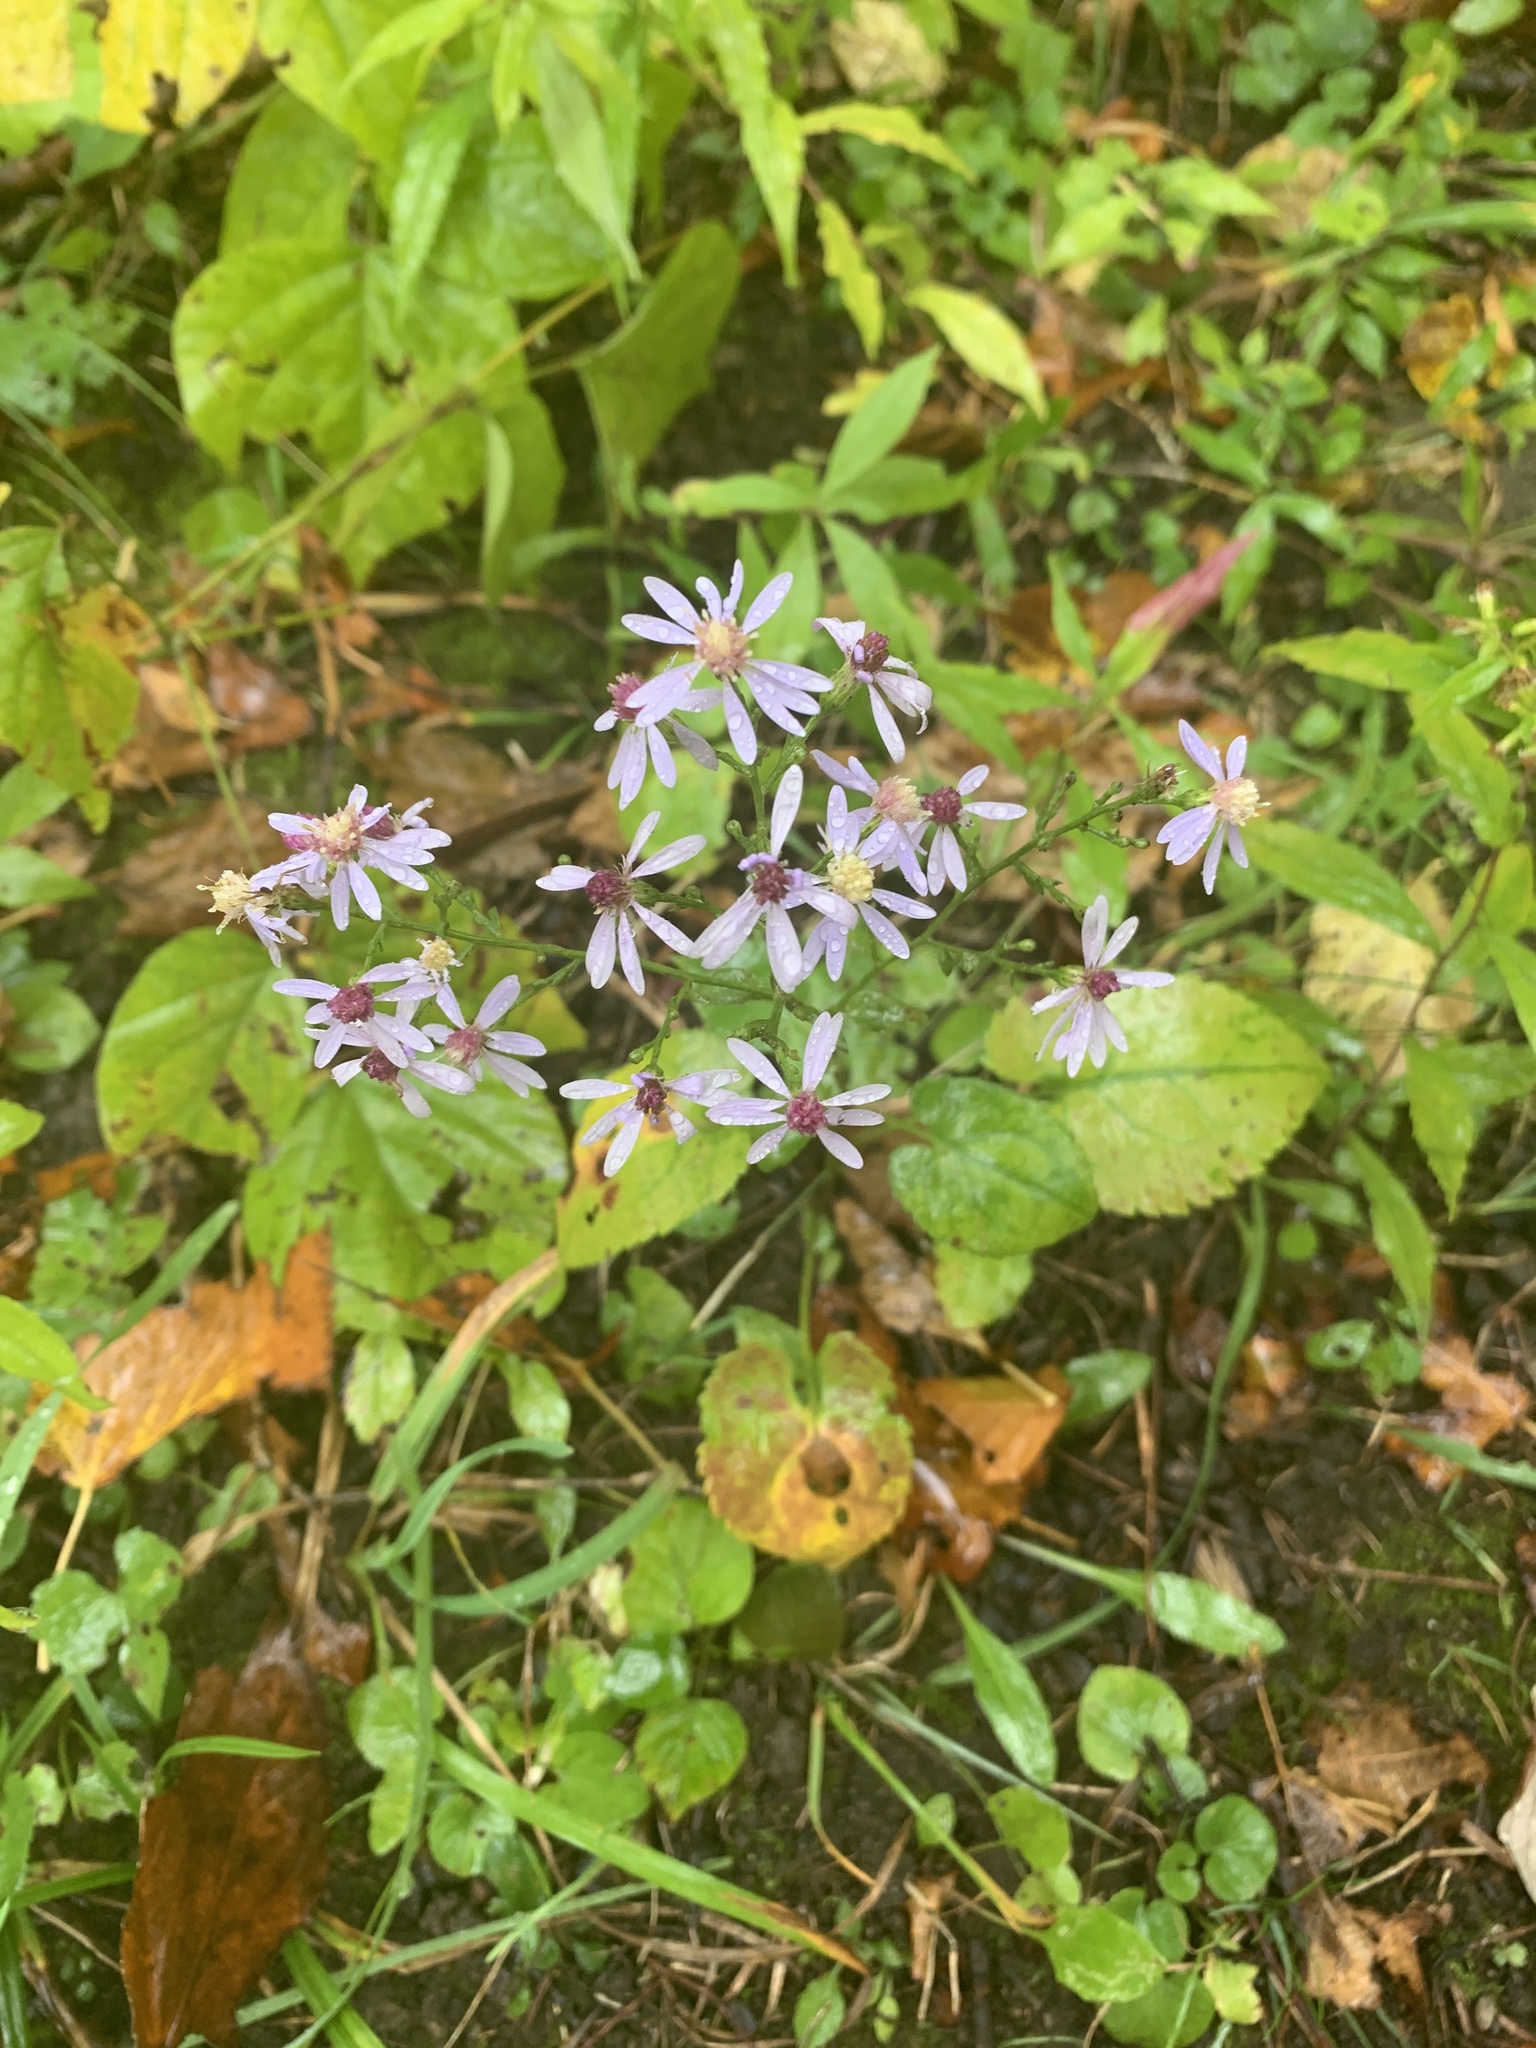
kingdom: Plantae
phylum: Tracheophyta
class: Magnoliopsida
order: Asterales
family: Asteraceae
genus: Symphyotrichum
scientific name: Symphyotrichum cordifolium
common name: Beeweed
